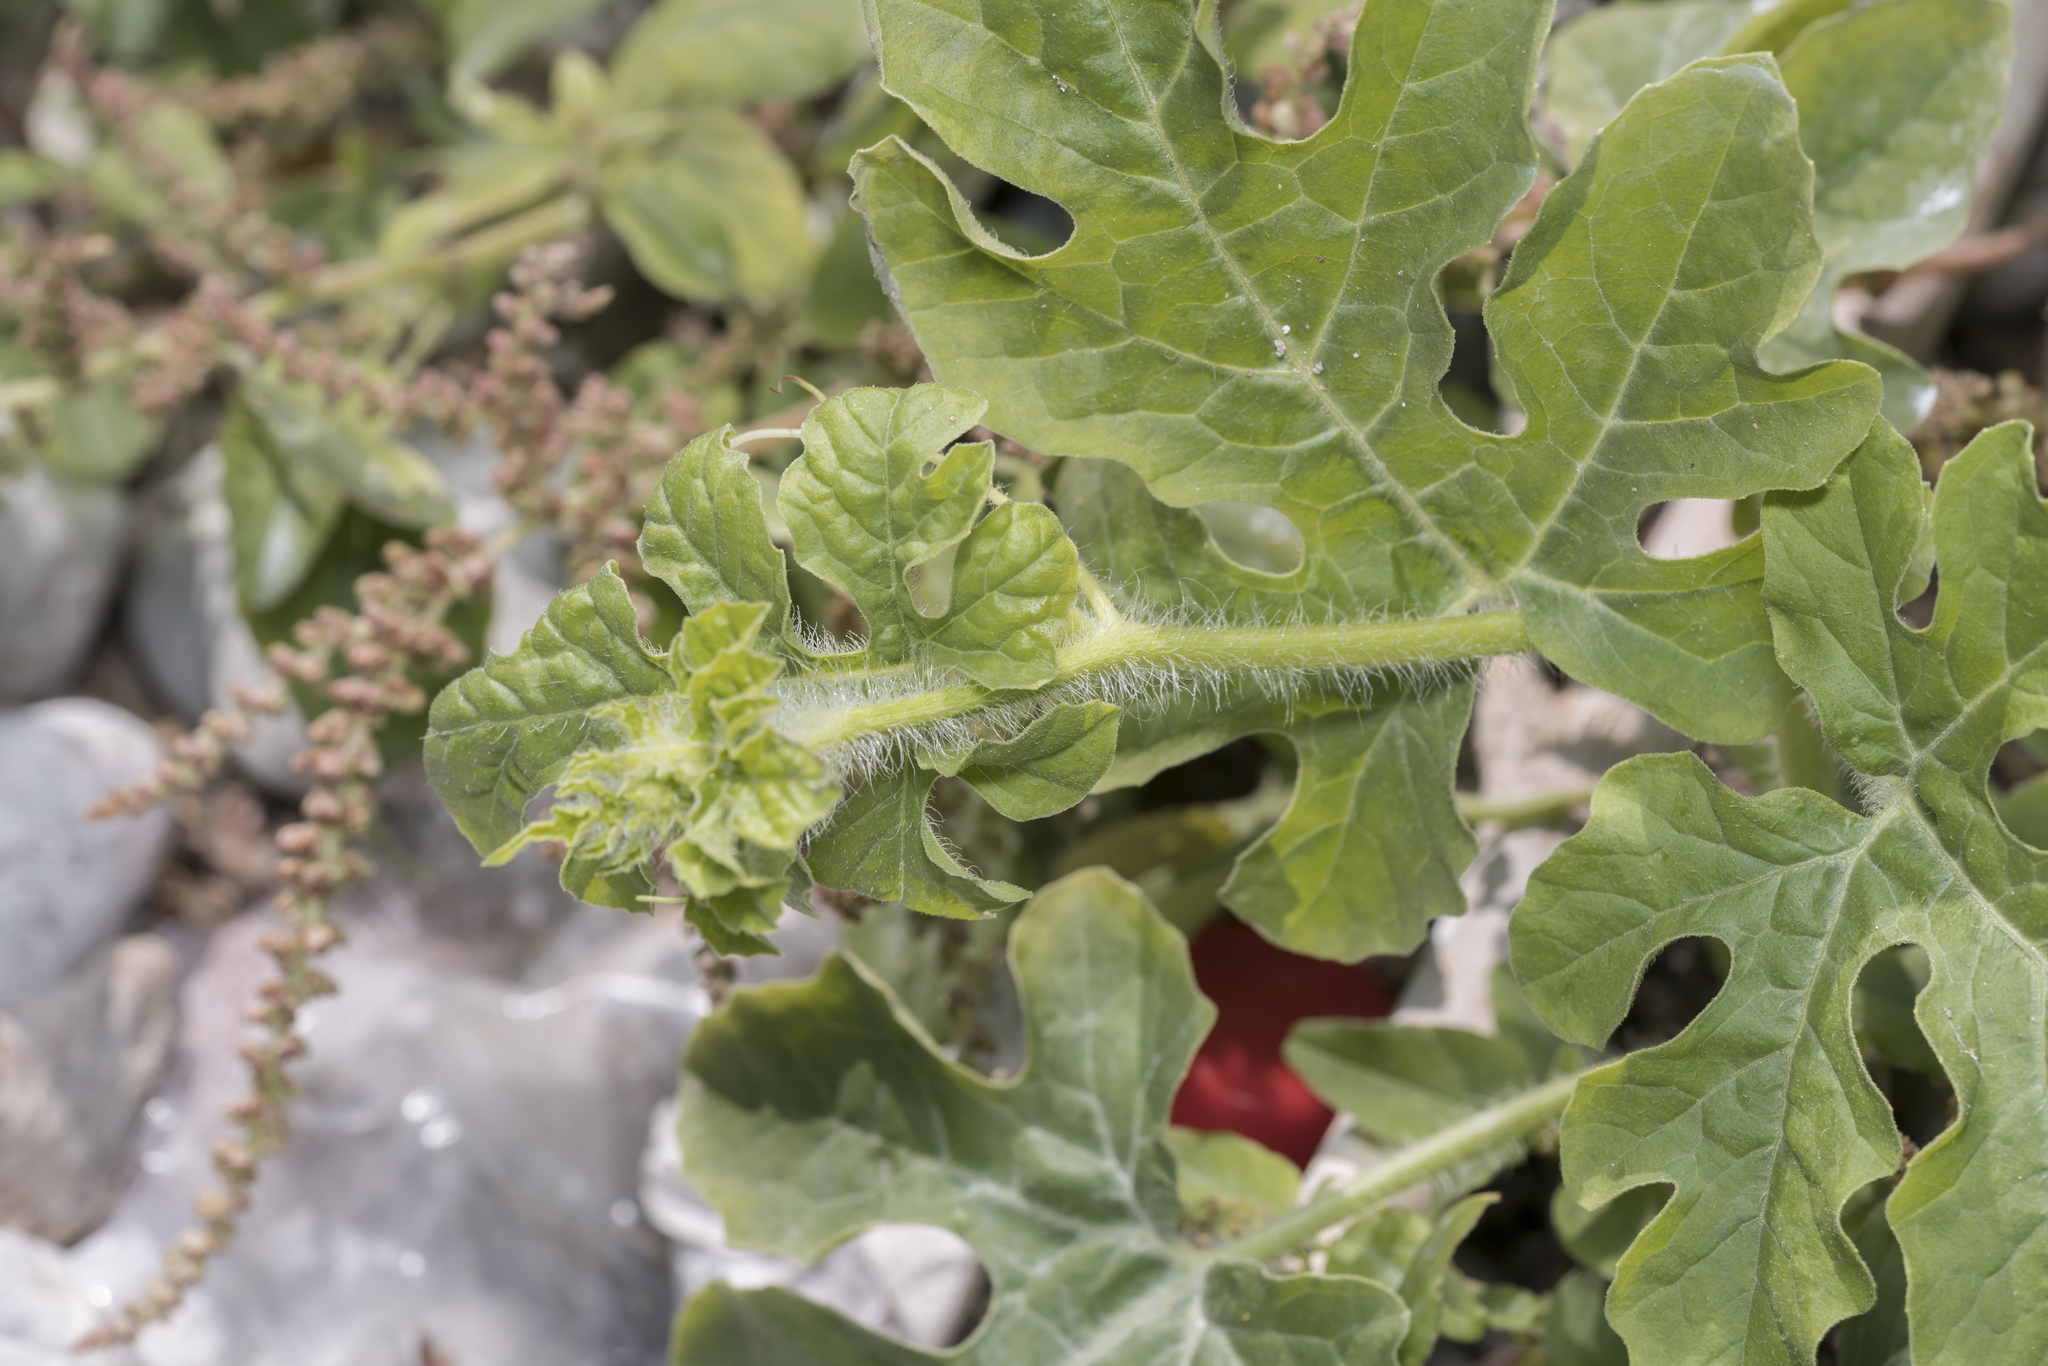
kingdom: Plantae
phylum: Tracheophyta
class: Magnoliopsida
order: Cucurbitales
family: Cucurbitaceae
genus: Citrullus
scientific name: Citrullus lanatus
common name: Watermelon
